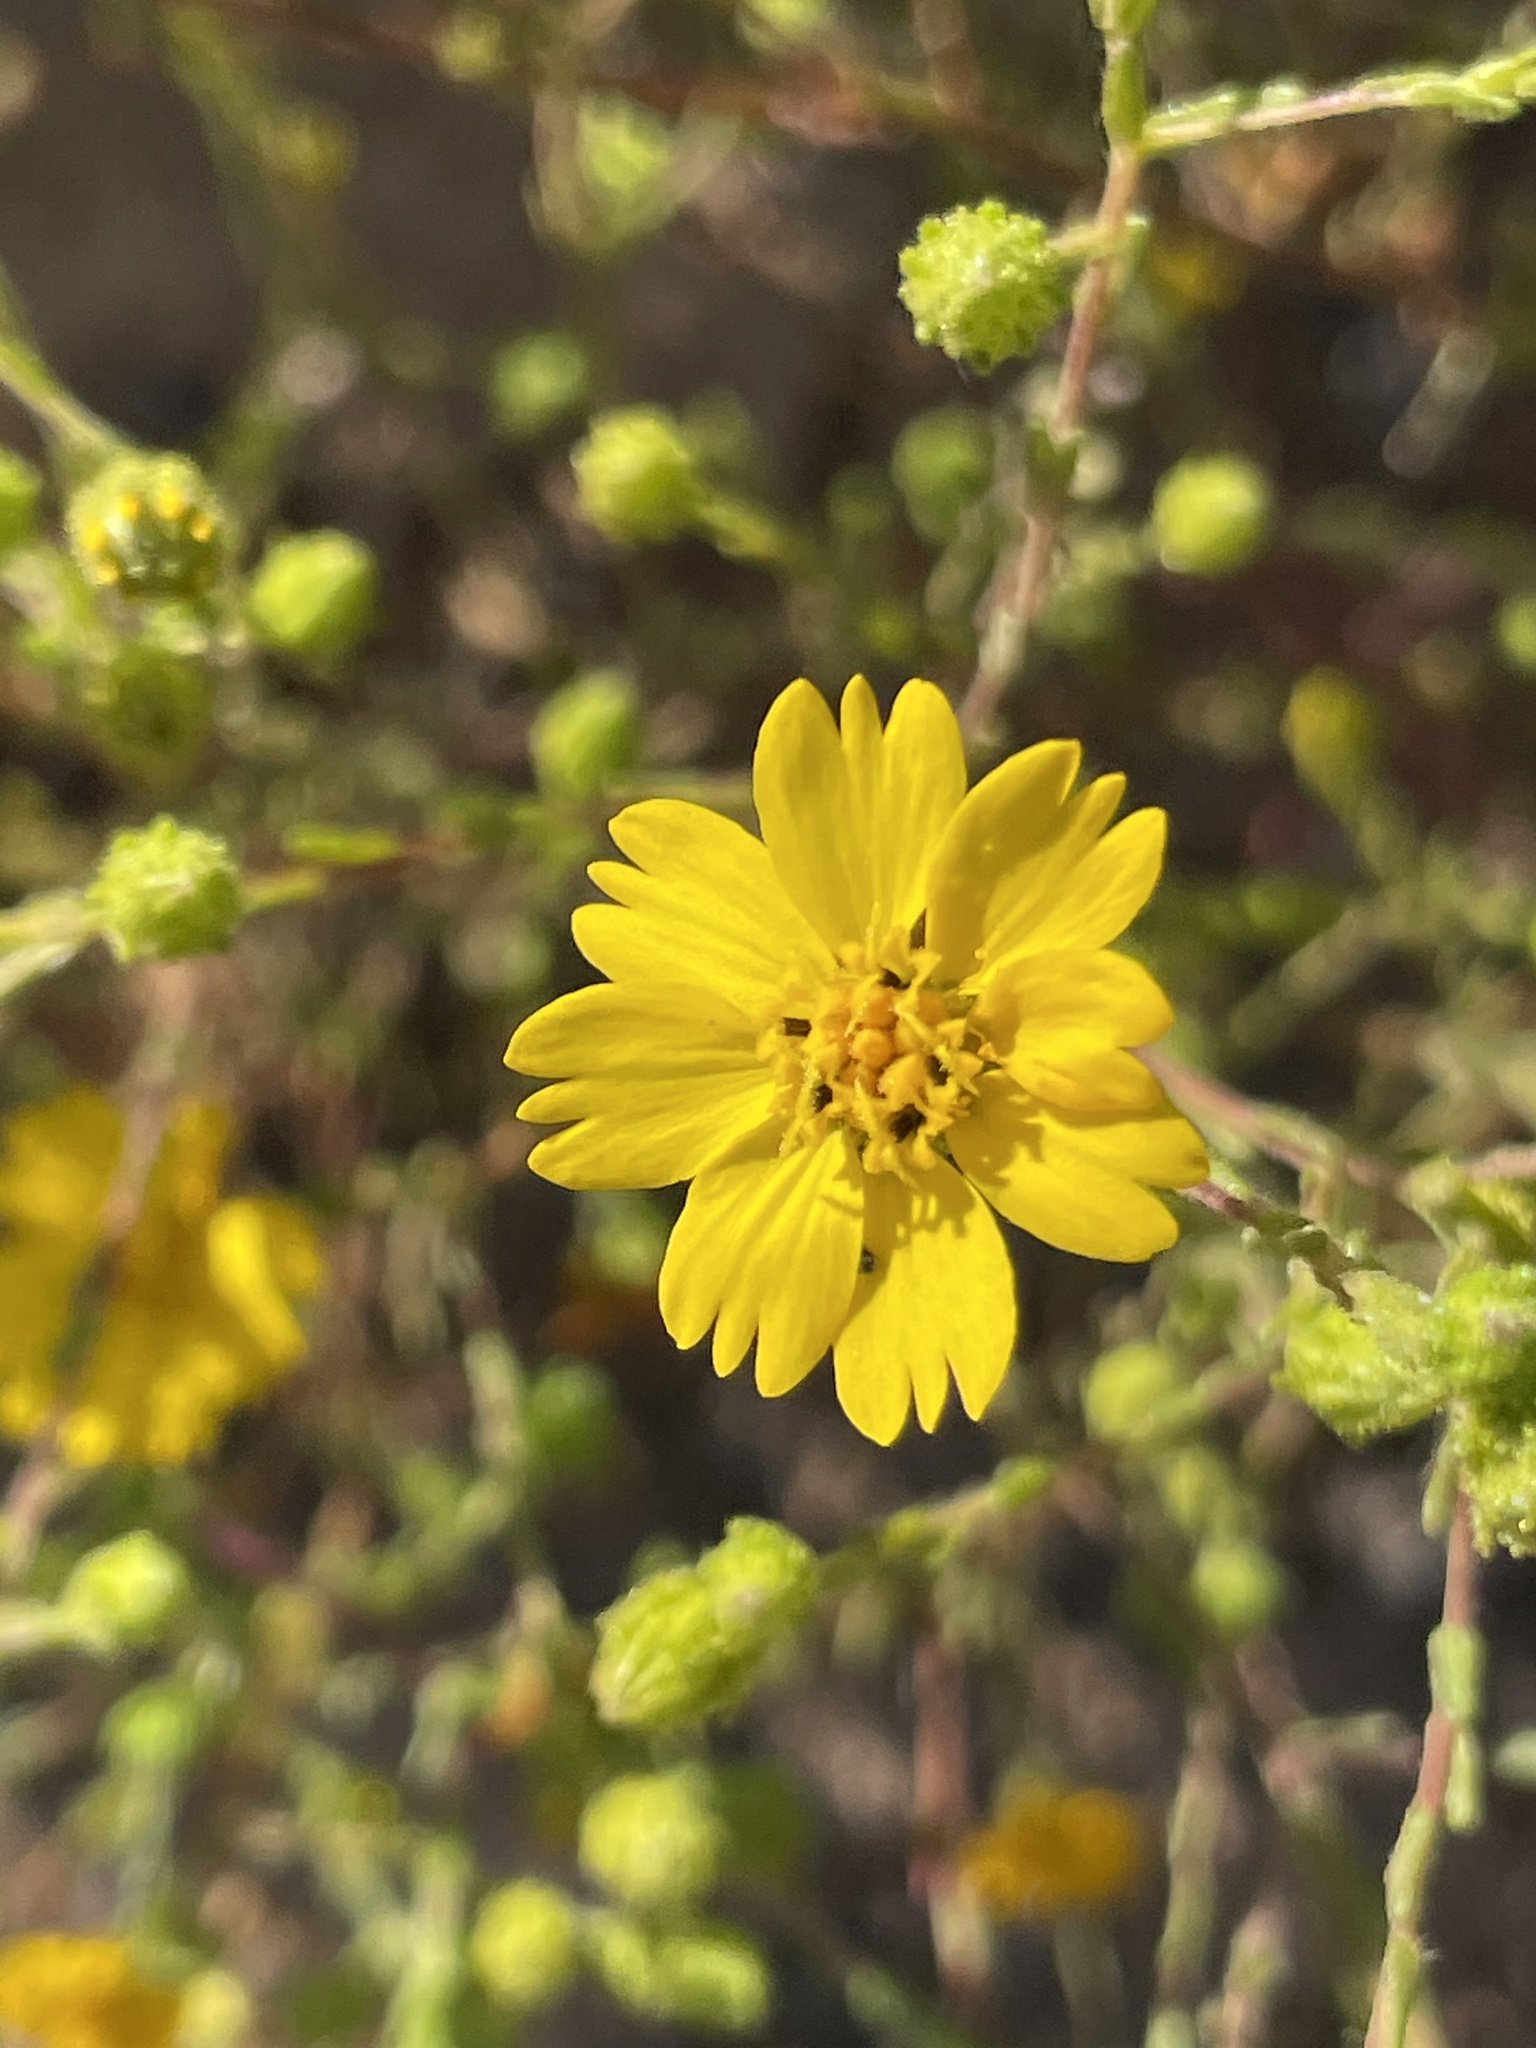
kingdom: Plantae
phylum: Tracheophyta
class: Magnoliopsida
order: Asterales
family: Asteraceae
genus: Deinandra
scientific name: Deinandra conjugens
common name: Otay tarplant
